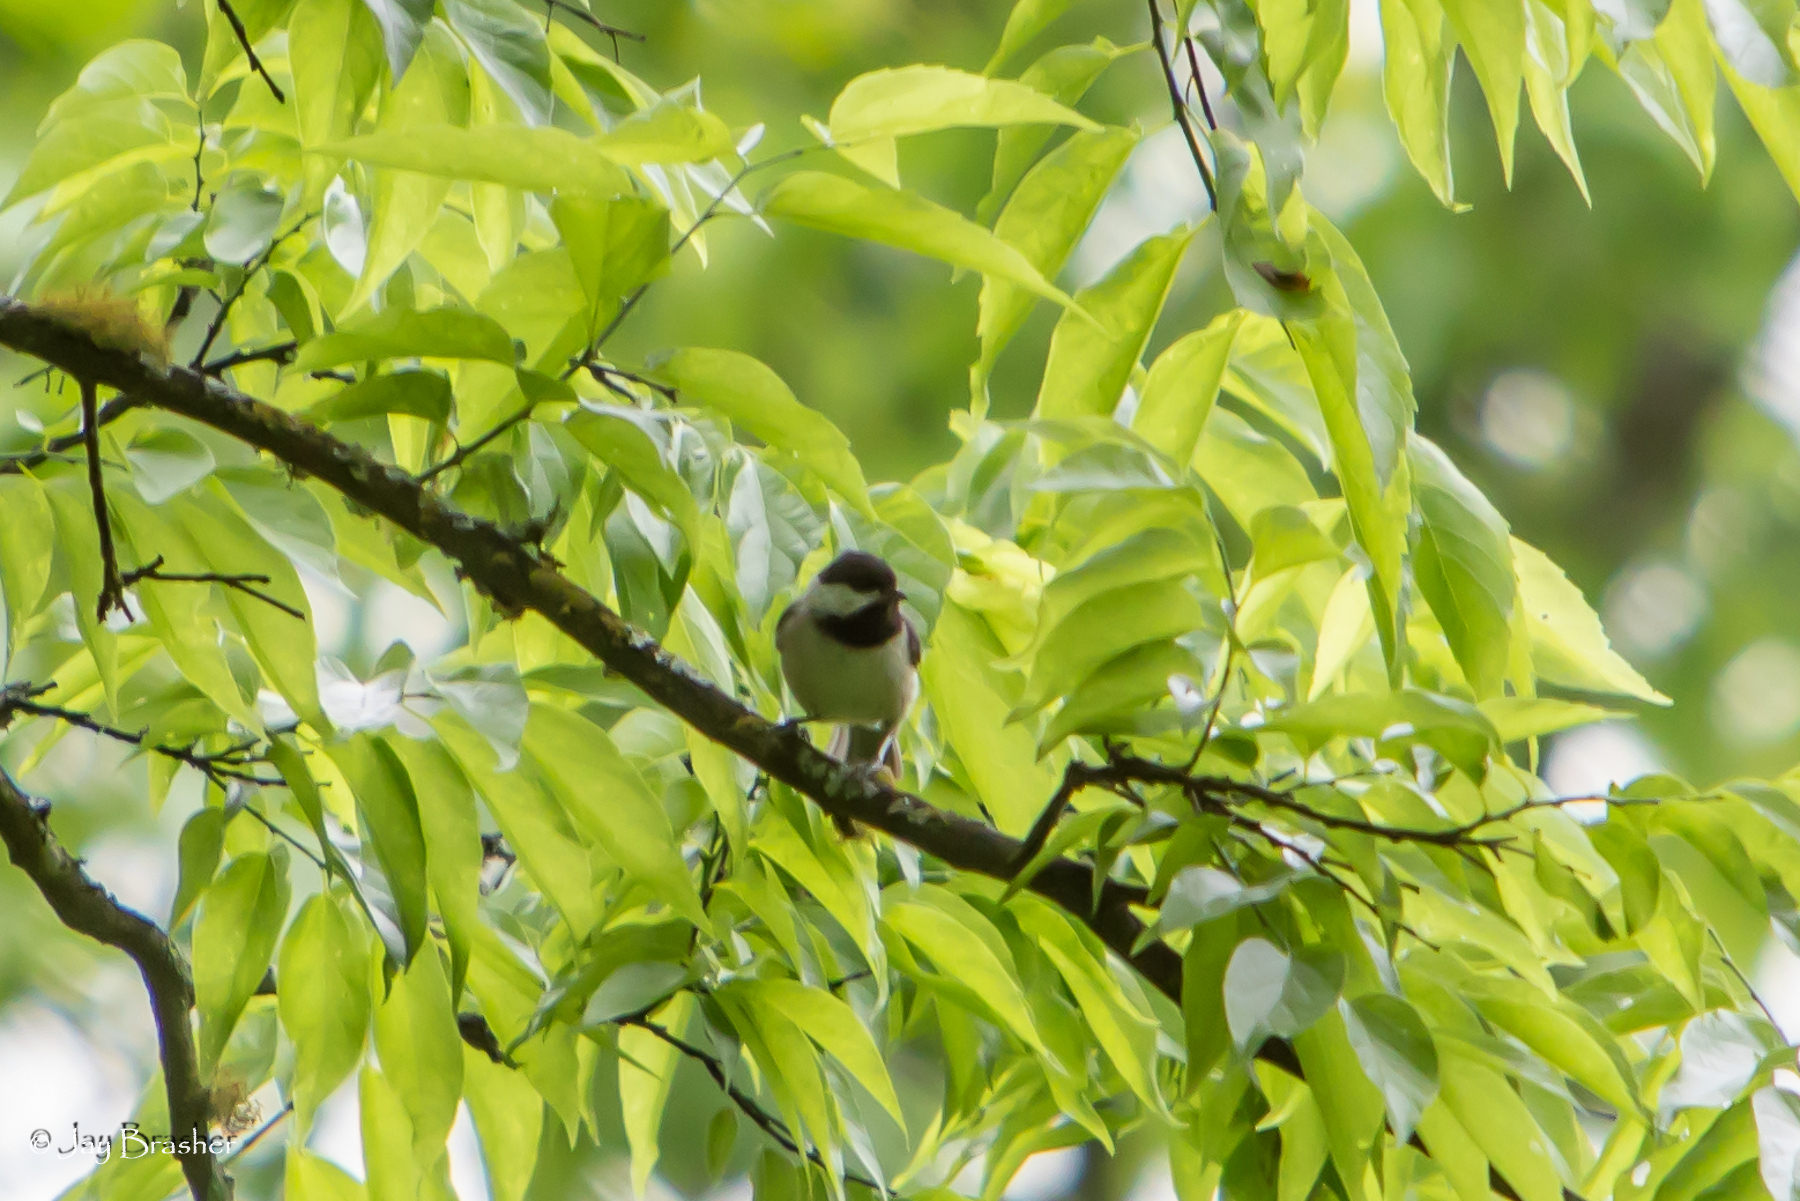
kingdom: Animalia
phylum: Chordata
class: Aves
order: Passeriformes
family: Paridae
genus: Poecile
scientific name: Poecile carolinensis
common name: Carolina chickadee
